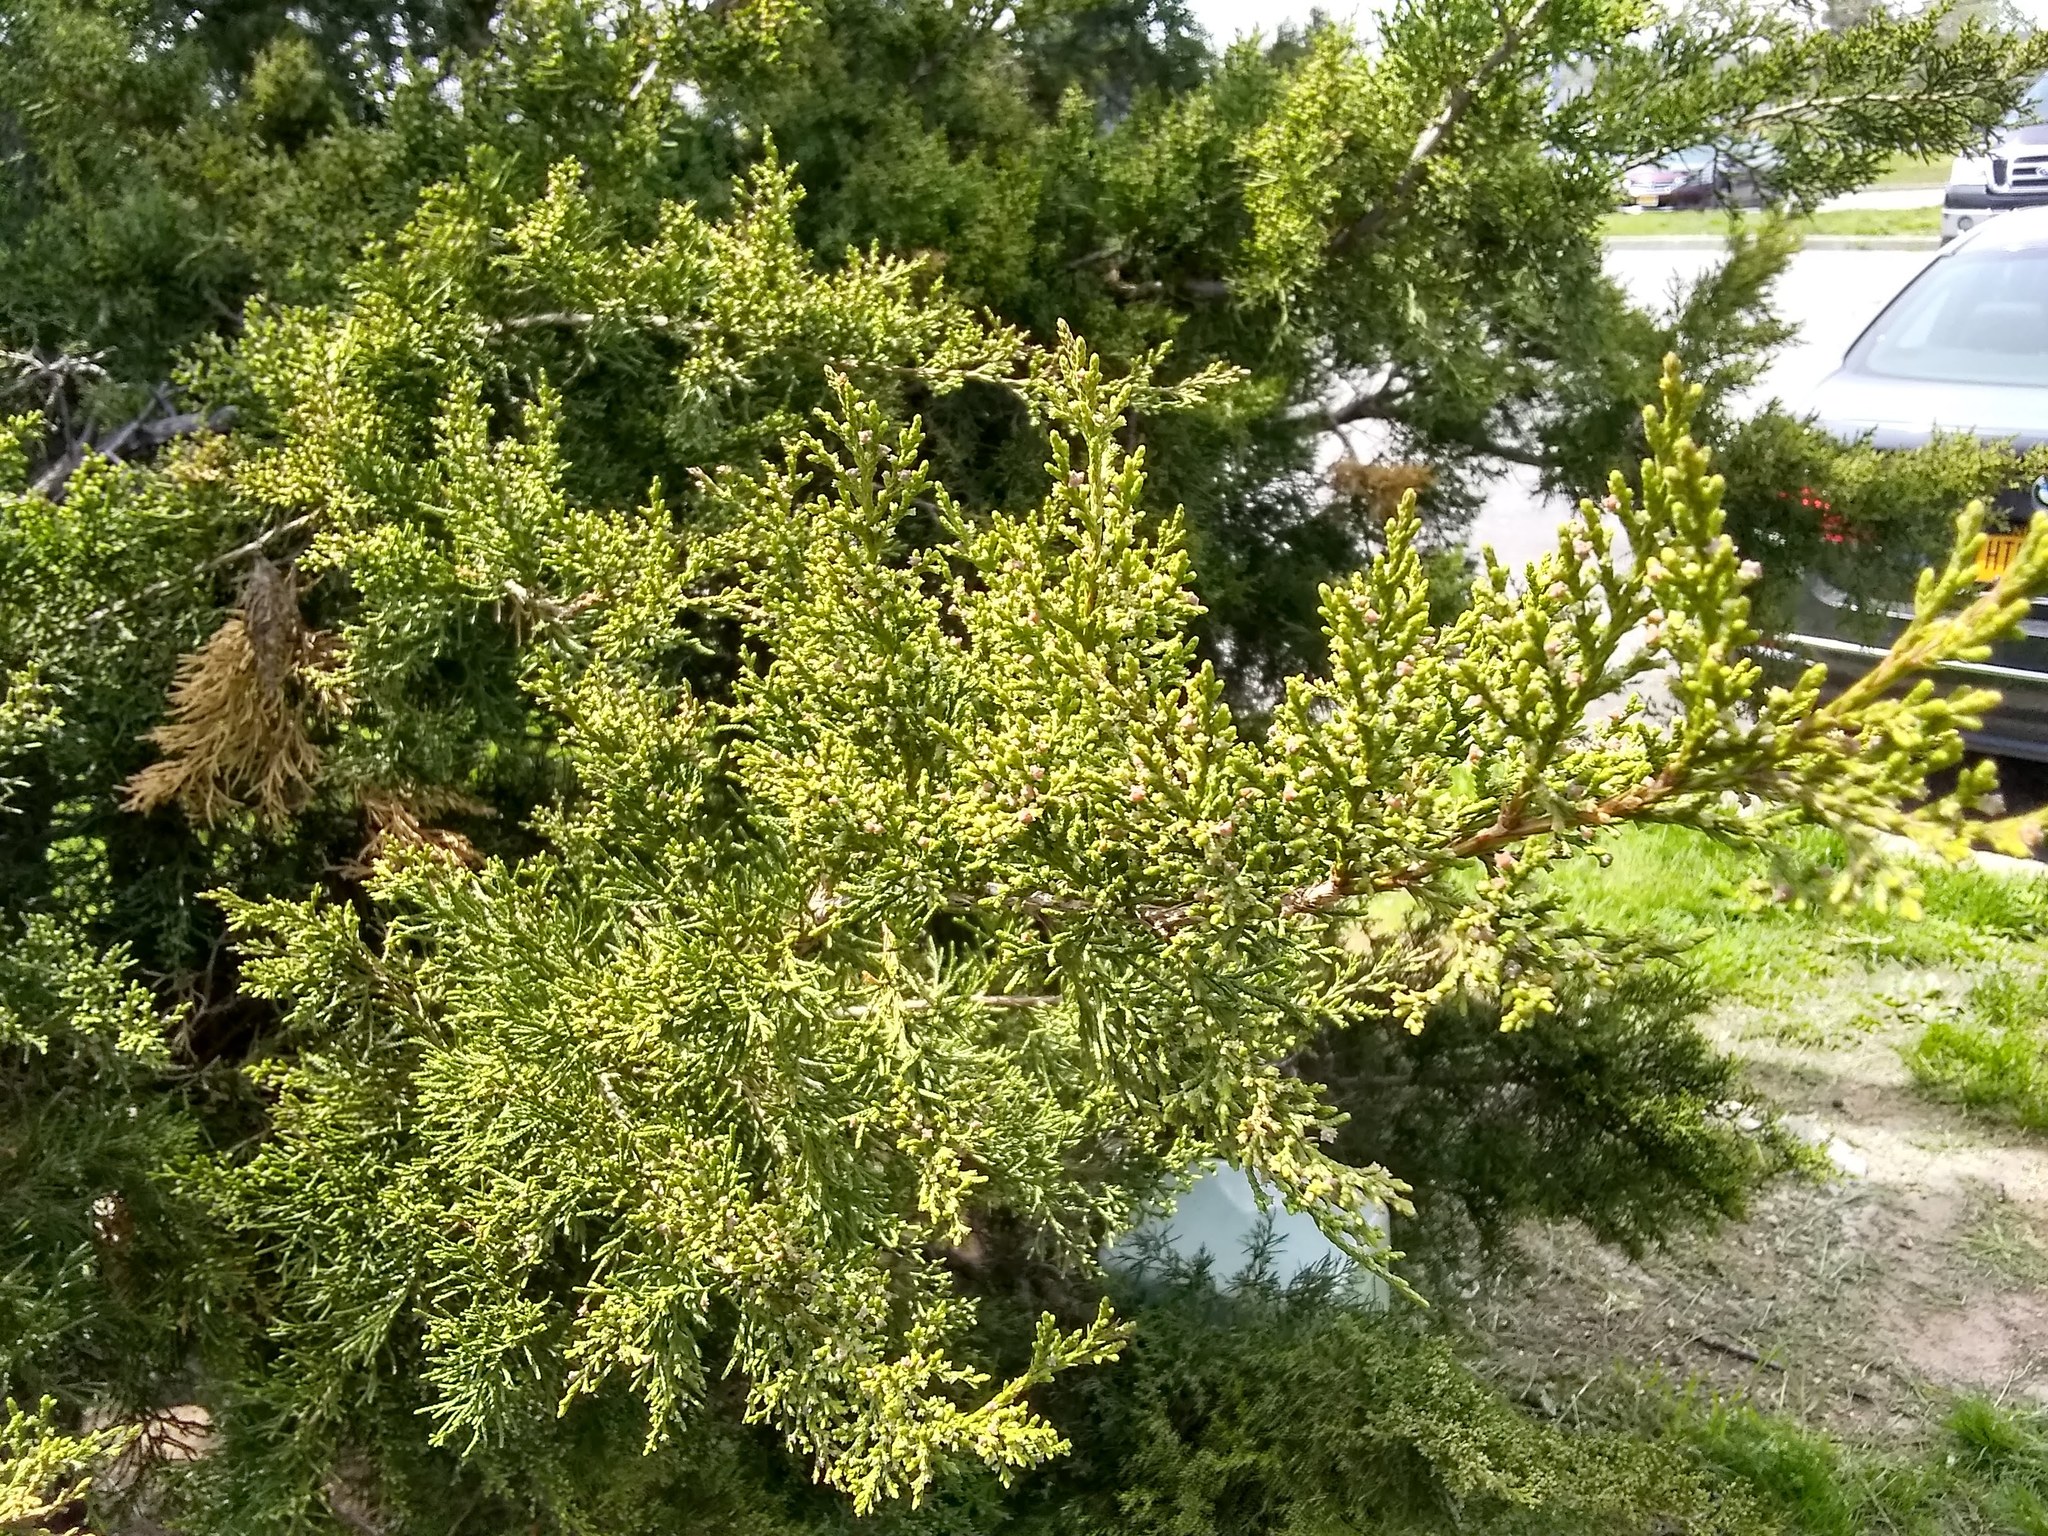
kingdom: Plantae
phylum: Tracheophyta
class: Pinopsida
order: Pinales
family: Cupressaceae
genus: Juniperus
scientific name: Juniperus virginiana
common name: Red juniper
